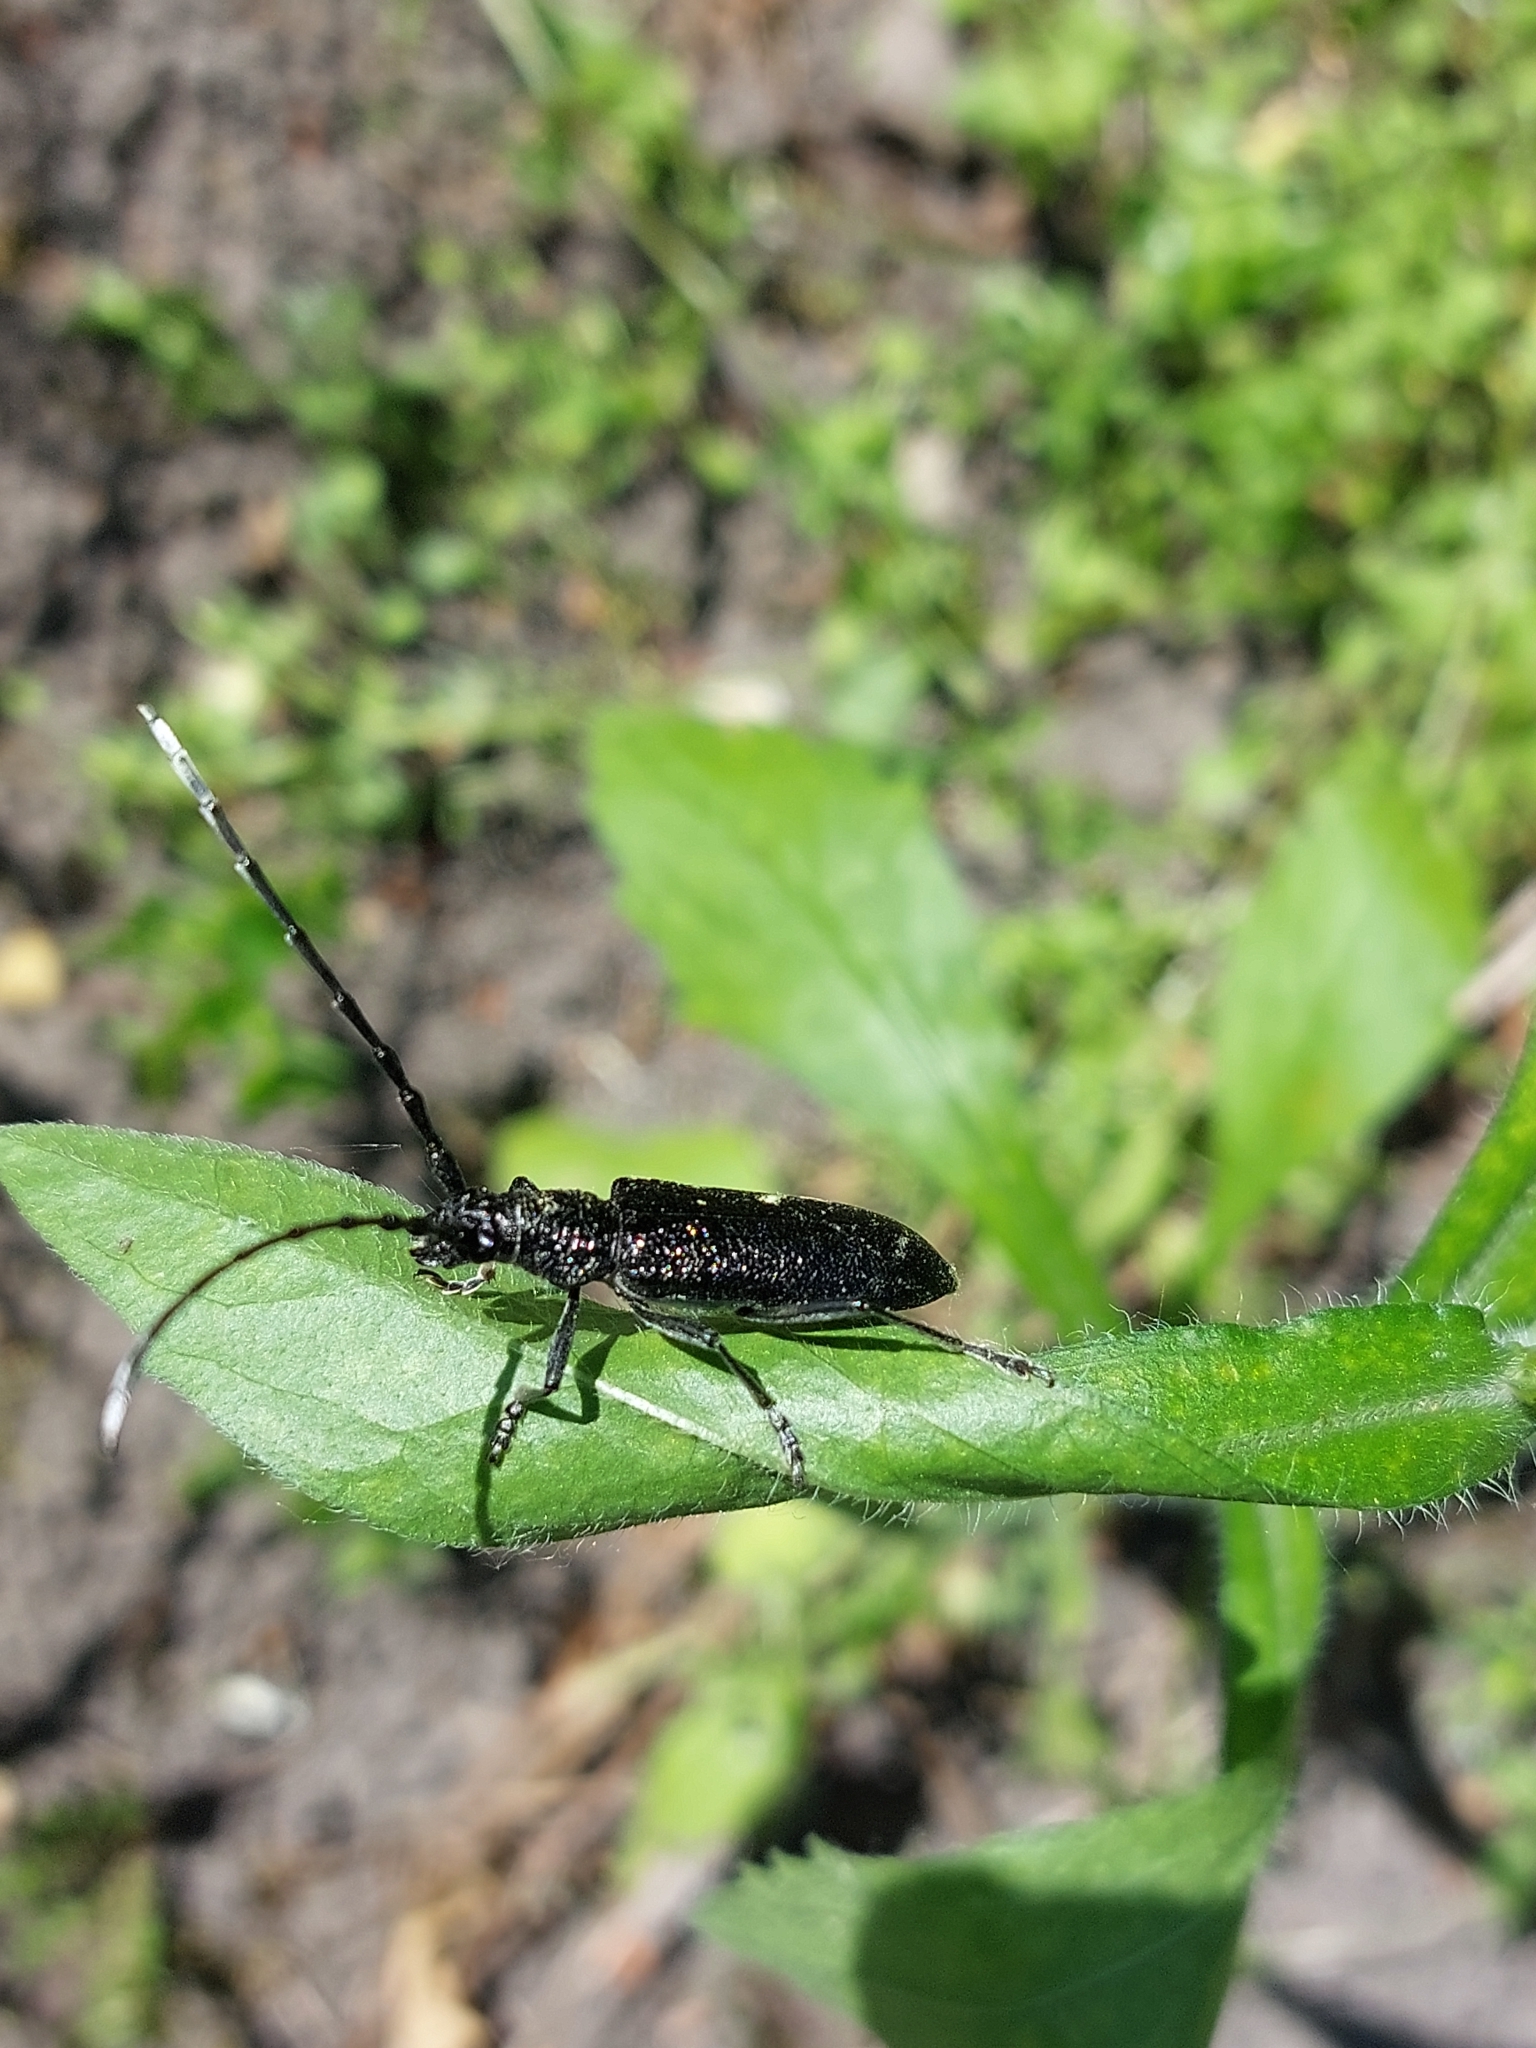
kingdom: Animalia
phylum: Arthropoda
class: Insecta
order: Coleoptera
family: Cerambycidae
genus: Cerambyx
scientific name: Cerambyx scopolii
